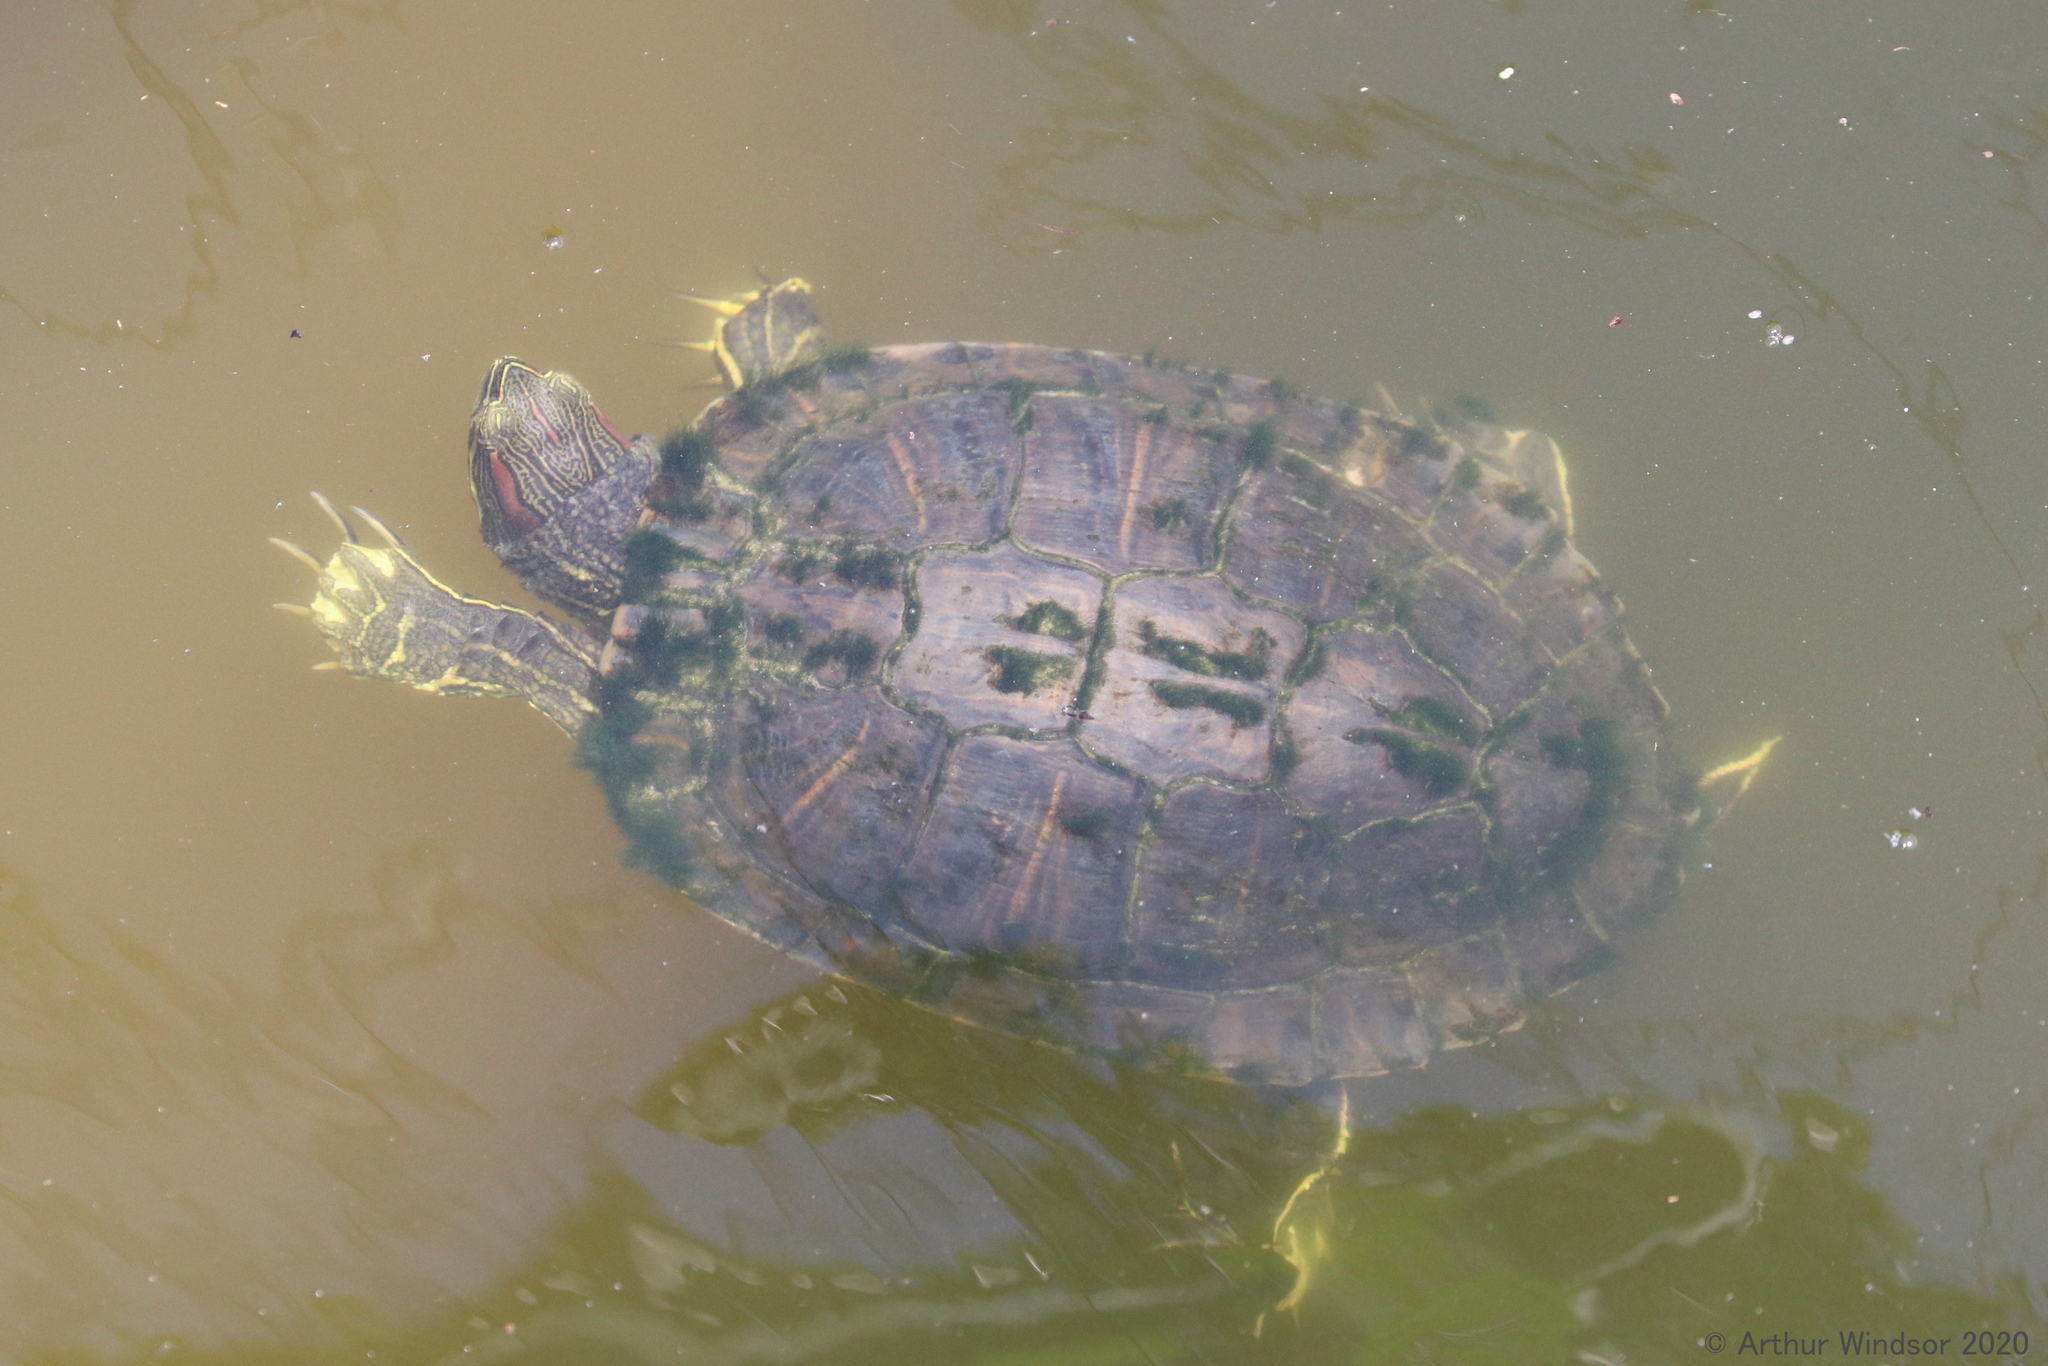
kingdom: Animalia
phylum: Chordata
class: Testudines
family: Emydidae
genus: Trachemys
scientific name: Trachemys scripta
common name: Slider
